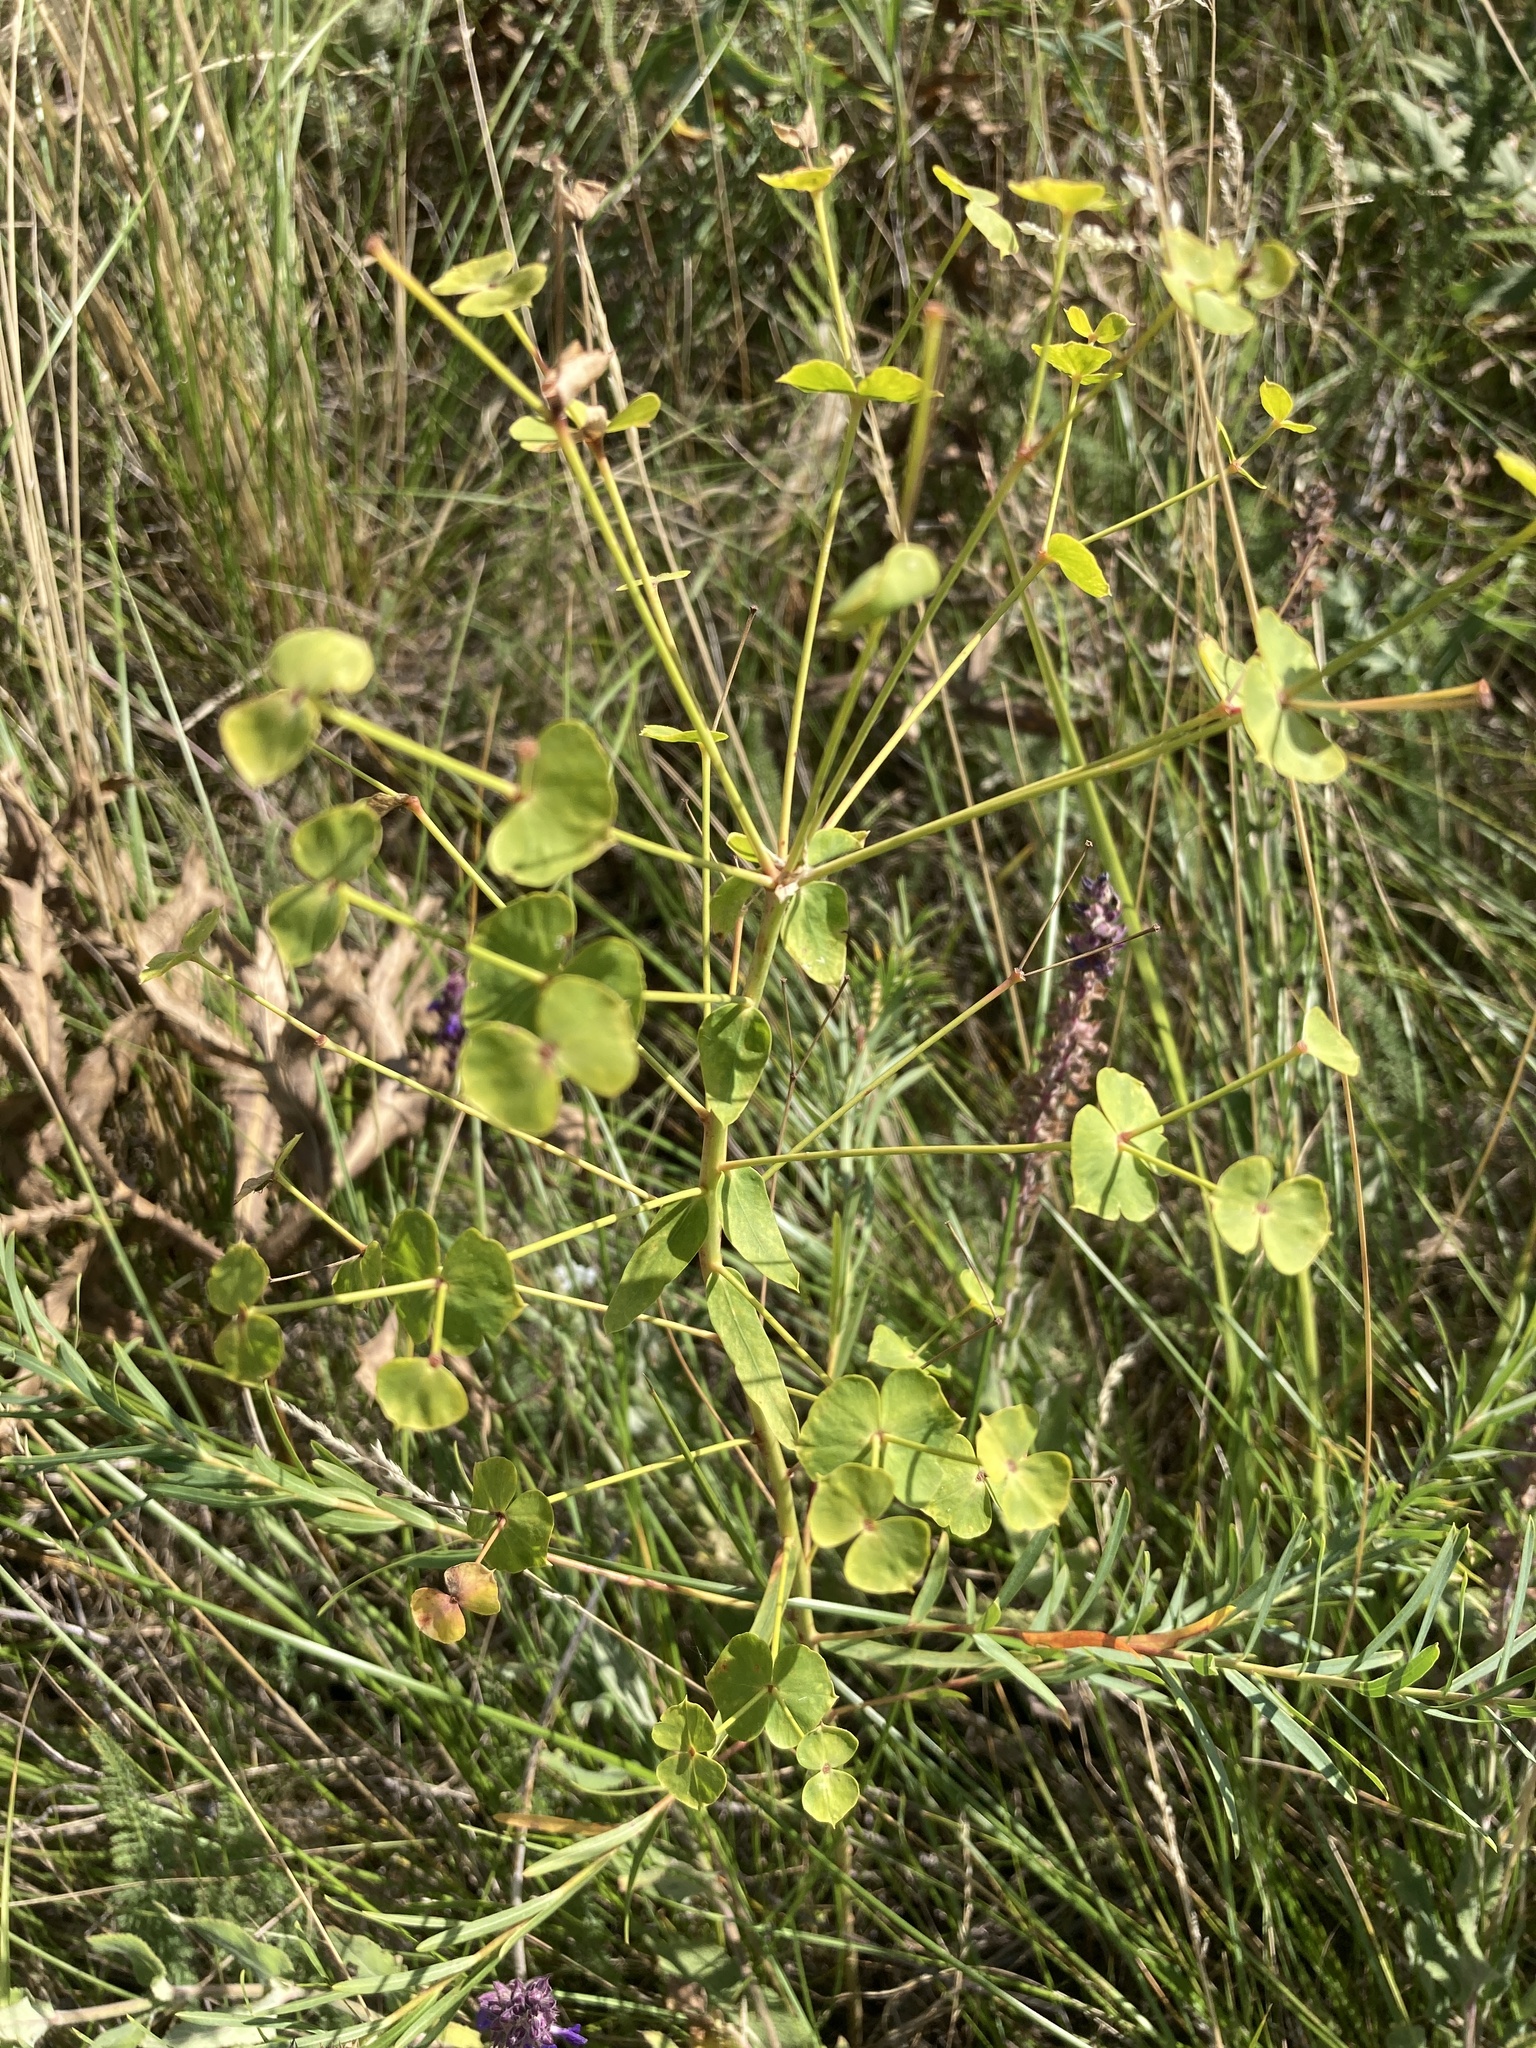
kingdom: Plantae
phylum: Tracheophyta
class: Magnoliopsida
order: Malpighiales
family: Euphorbiaceae
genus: Euphorbia
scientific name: Euphorbia virgata
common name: Leafy spurge
